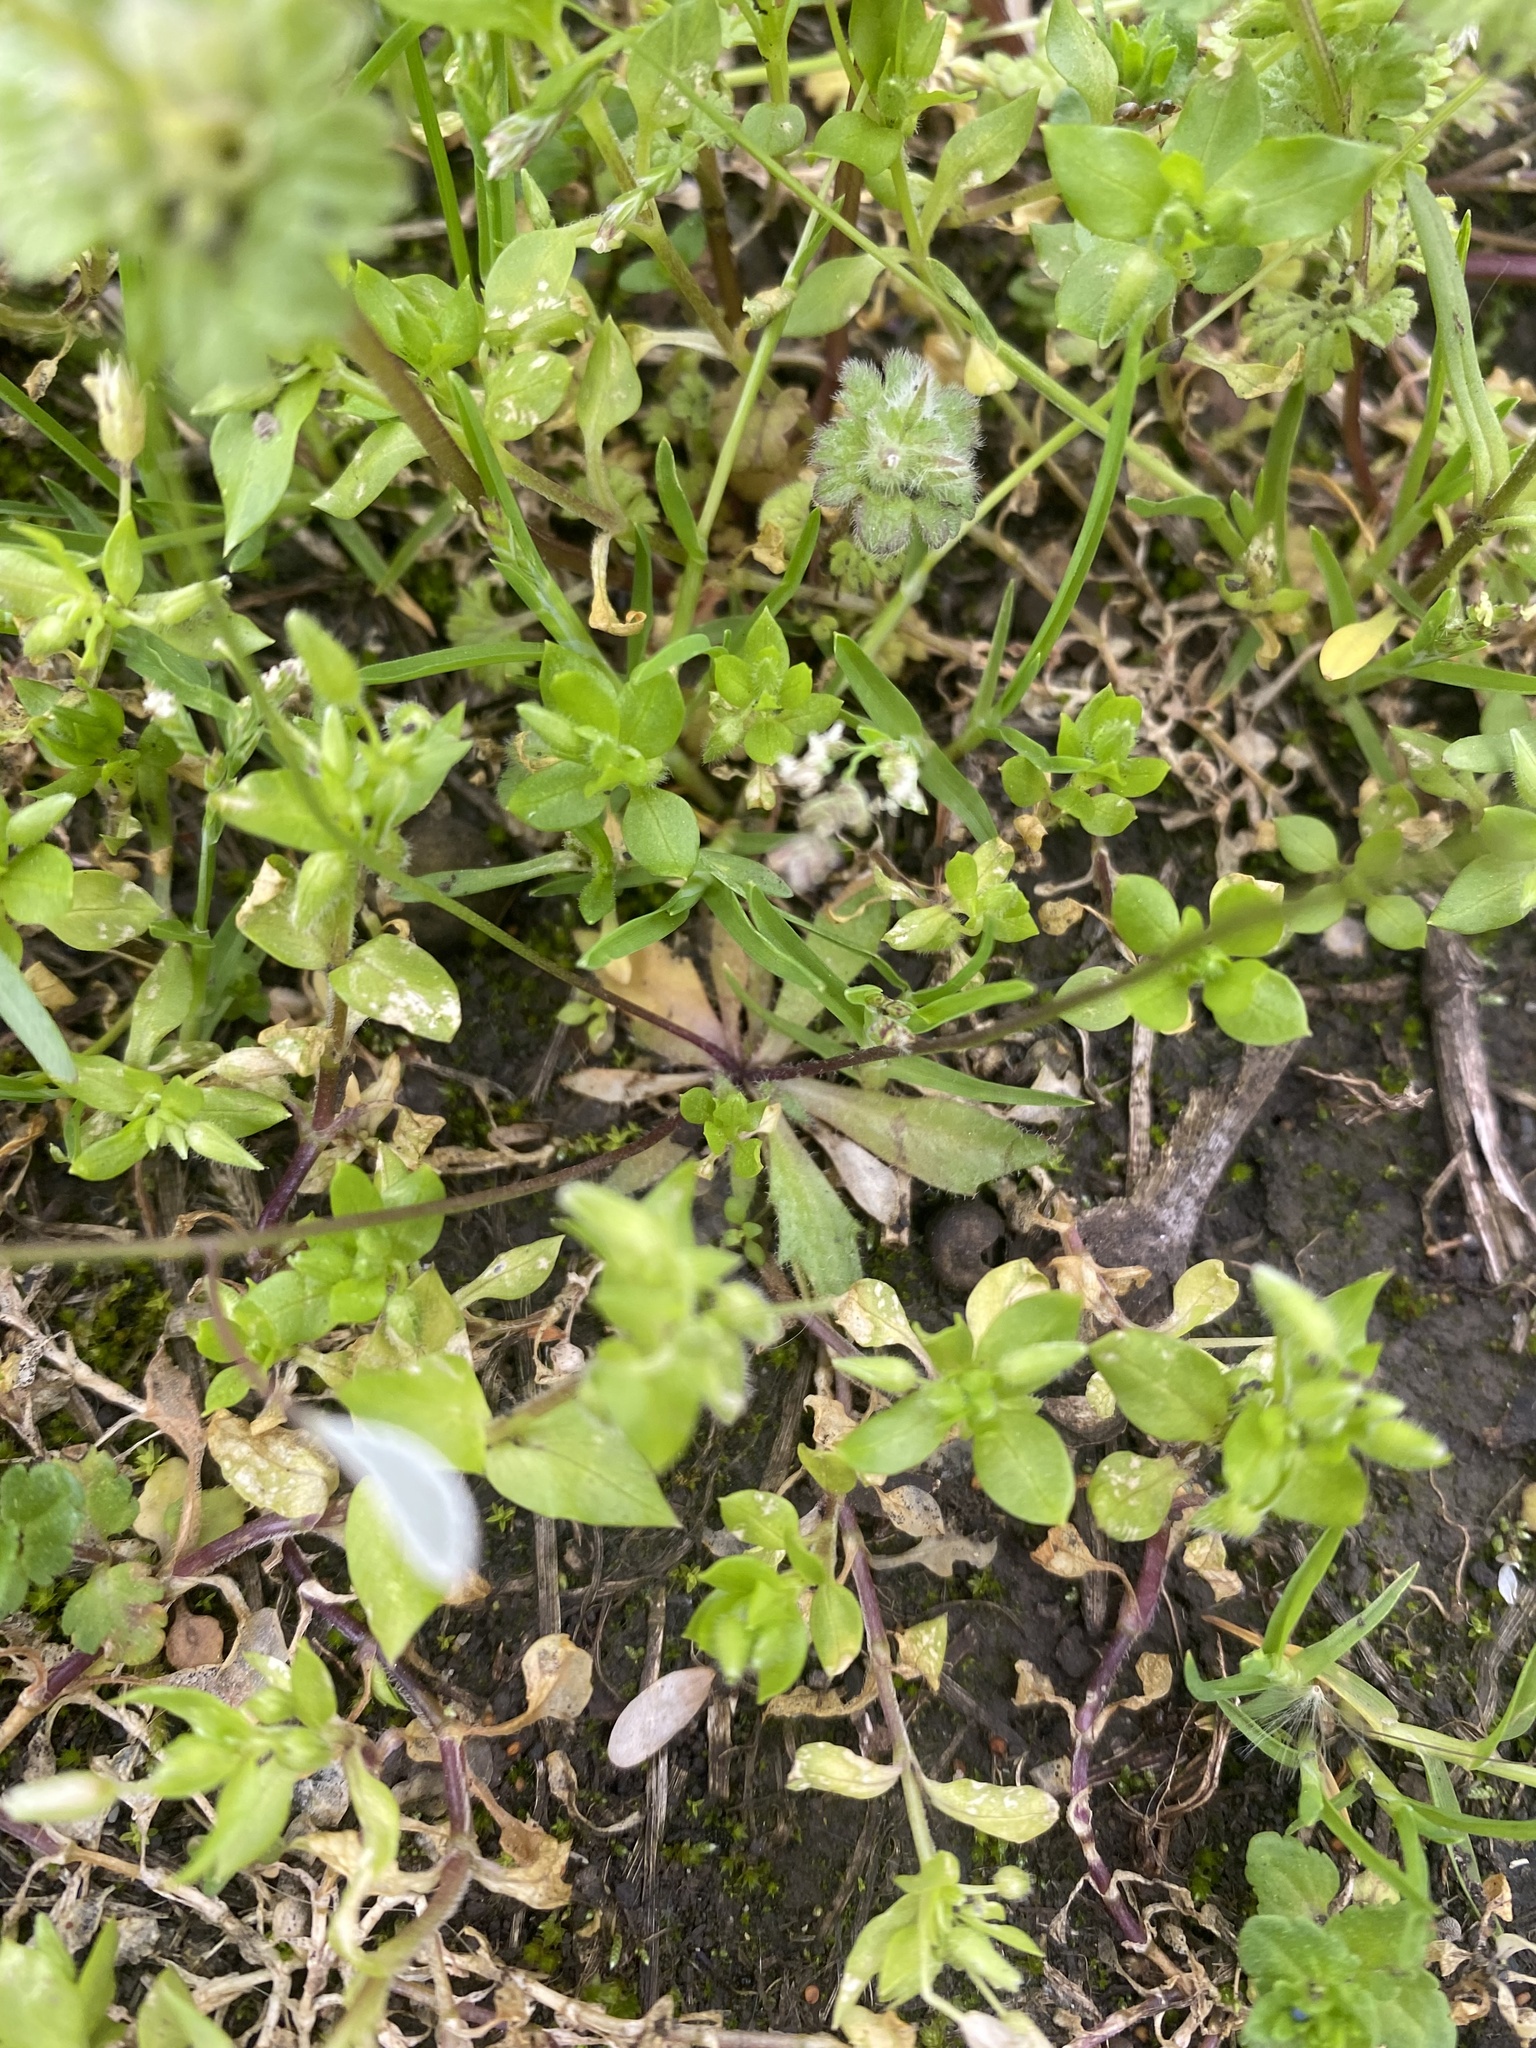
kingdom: Plantae
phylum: Tracheophyta
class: Magnoliopsida
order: Brassicales
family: Brassicaceae
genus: Draba
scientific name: Draba verna
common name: Spring draba
